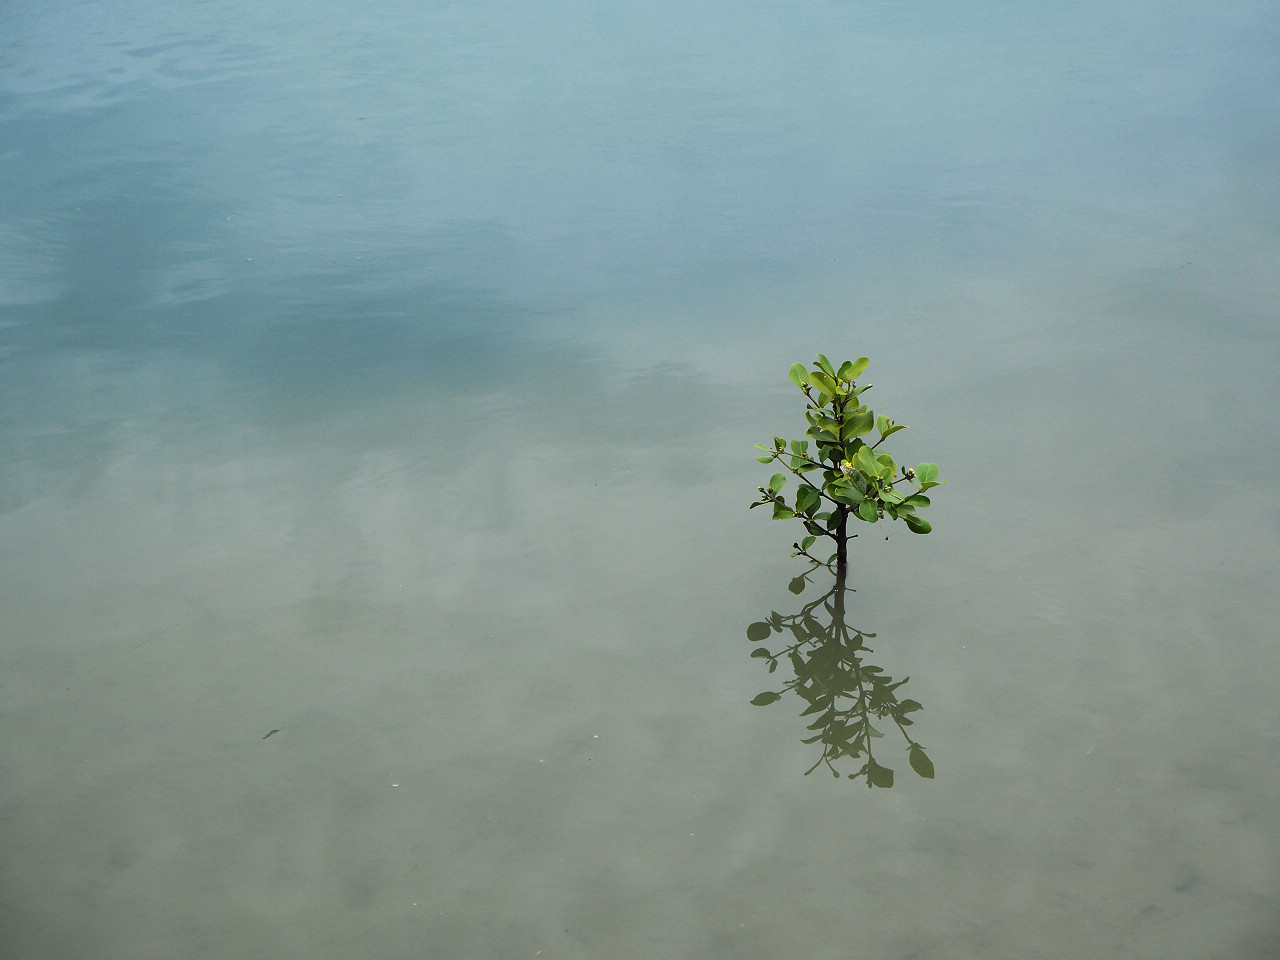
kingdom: Plantae
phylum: Tracheophyta
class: Magnoliopsida
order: Lamiales
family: Acanthaceae
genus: Avicennia
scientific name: Avicennia marina
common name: Gray mangrove
